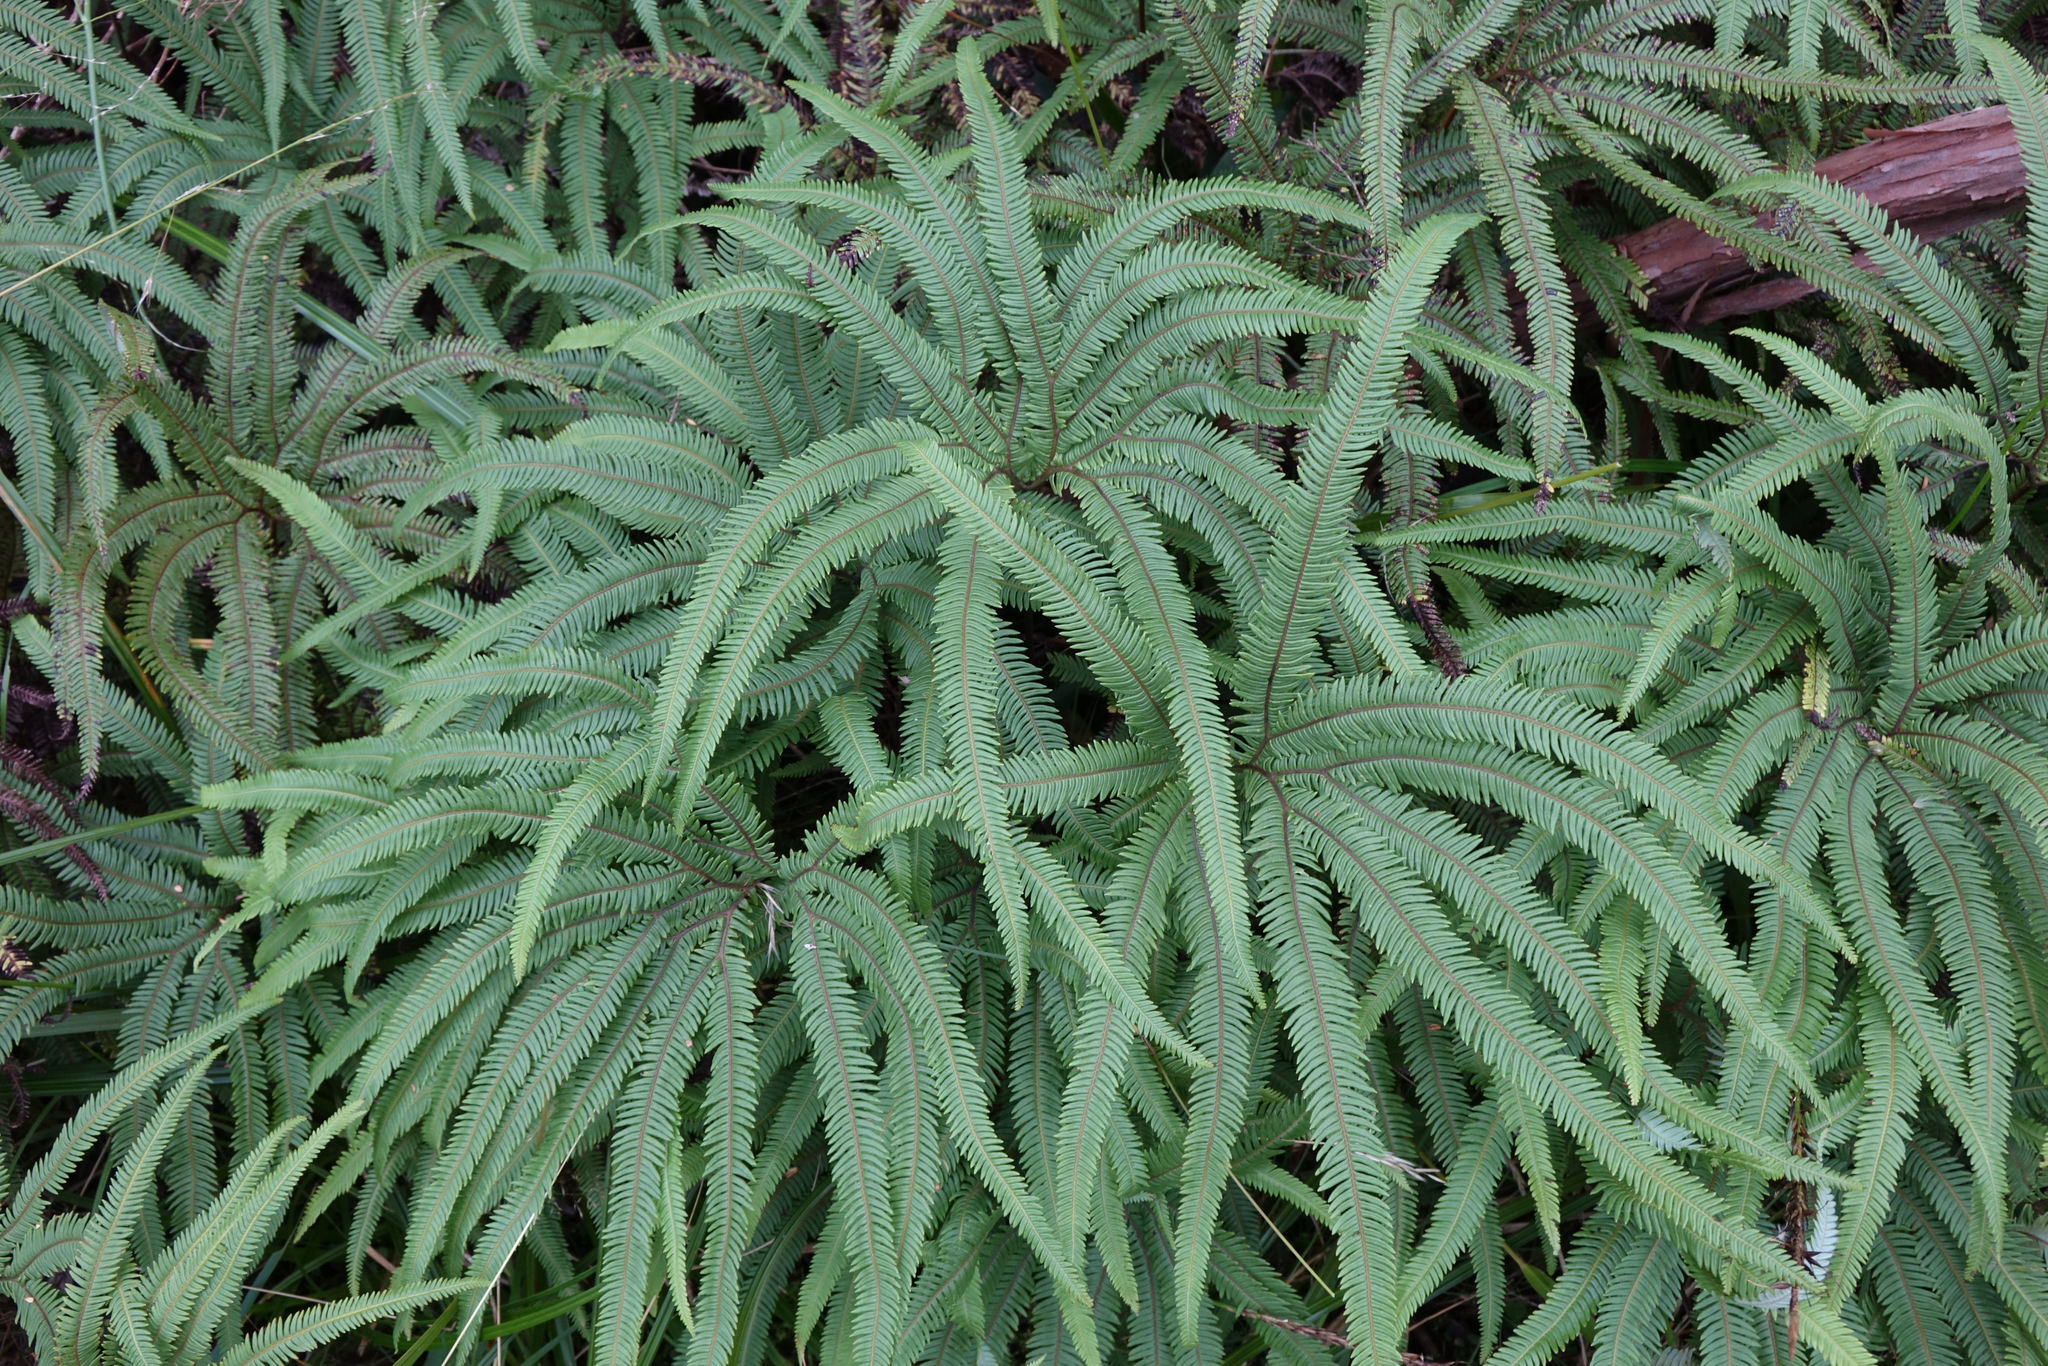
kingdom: Plantae
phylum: Tracheophyta
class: Polypodiopsida
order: Gleicheniales
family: Gleicheniaceae
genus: Sticherus
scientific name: Sticherus cunninghamii
